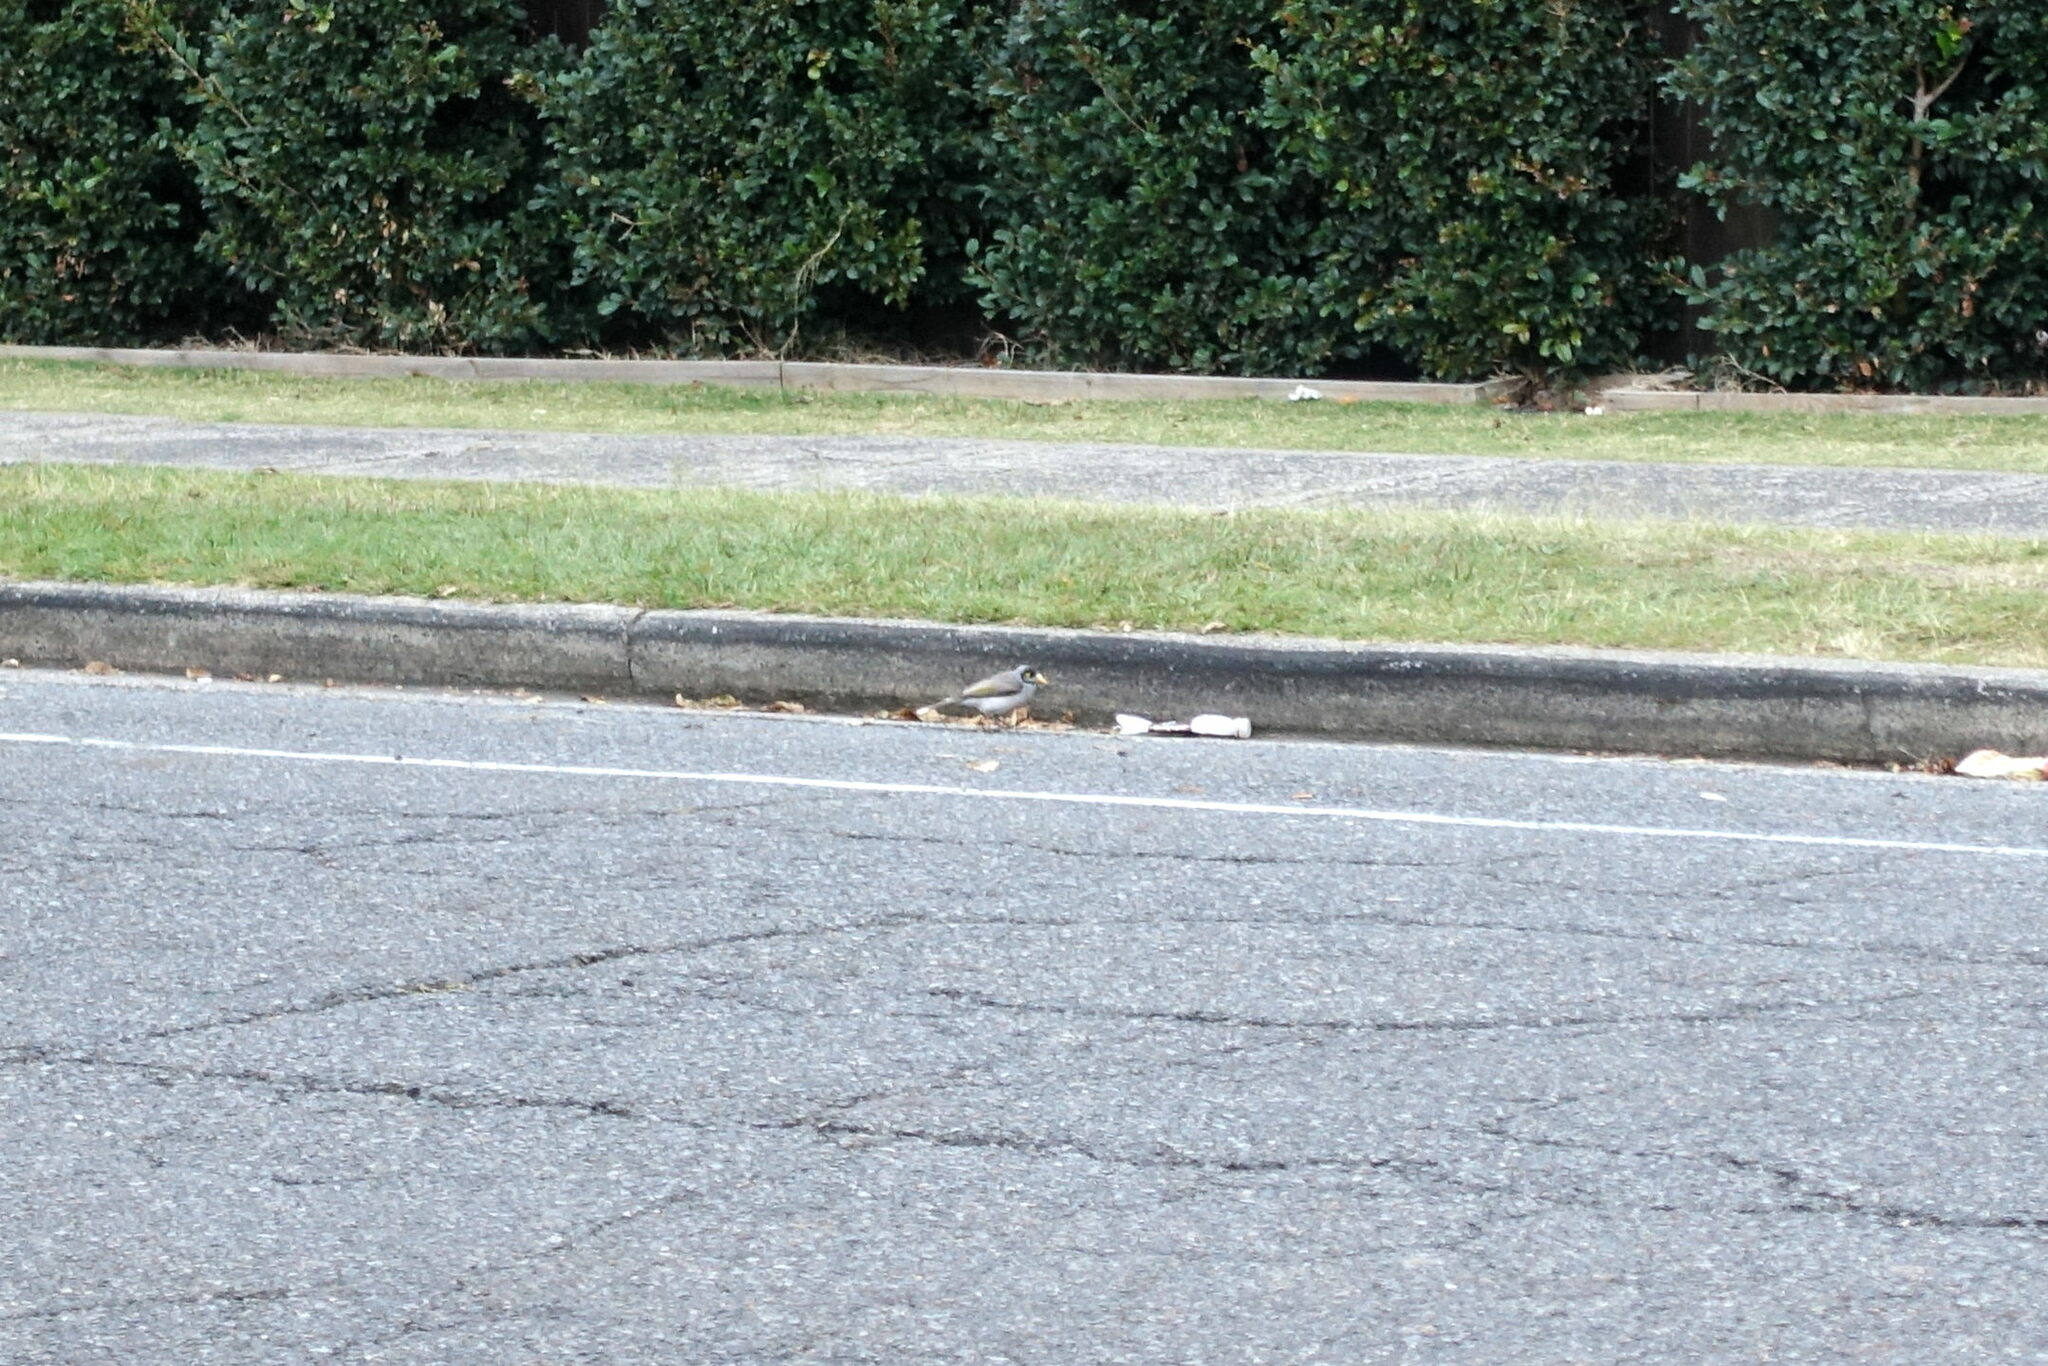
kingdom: Animalia
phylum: Chordata
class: Aves
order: Passeriformes
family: Meliphagidae
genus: Manorina
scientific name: Manorina melanocephala
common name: Noisy miner
